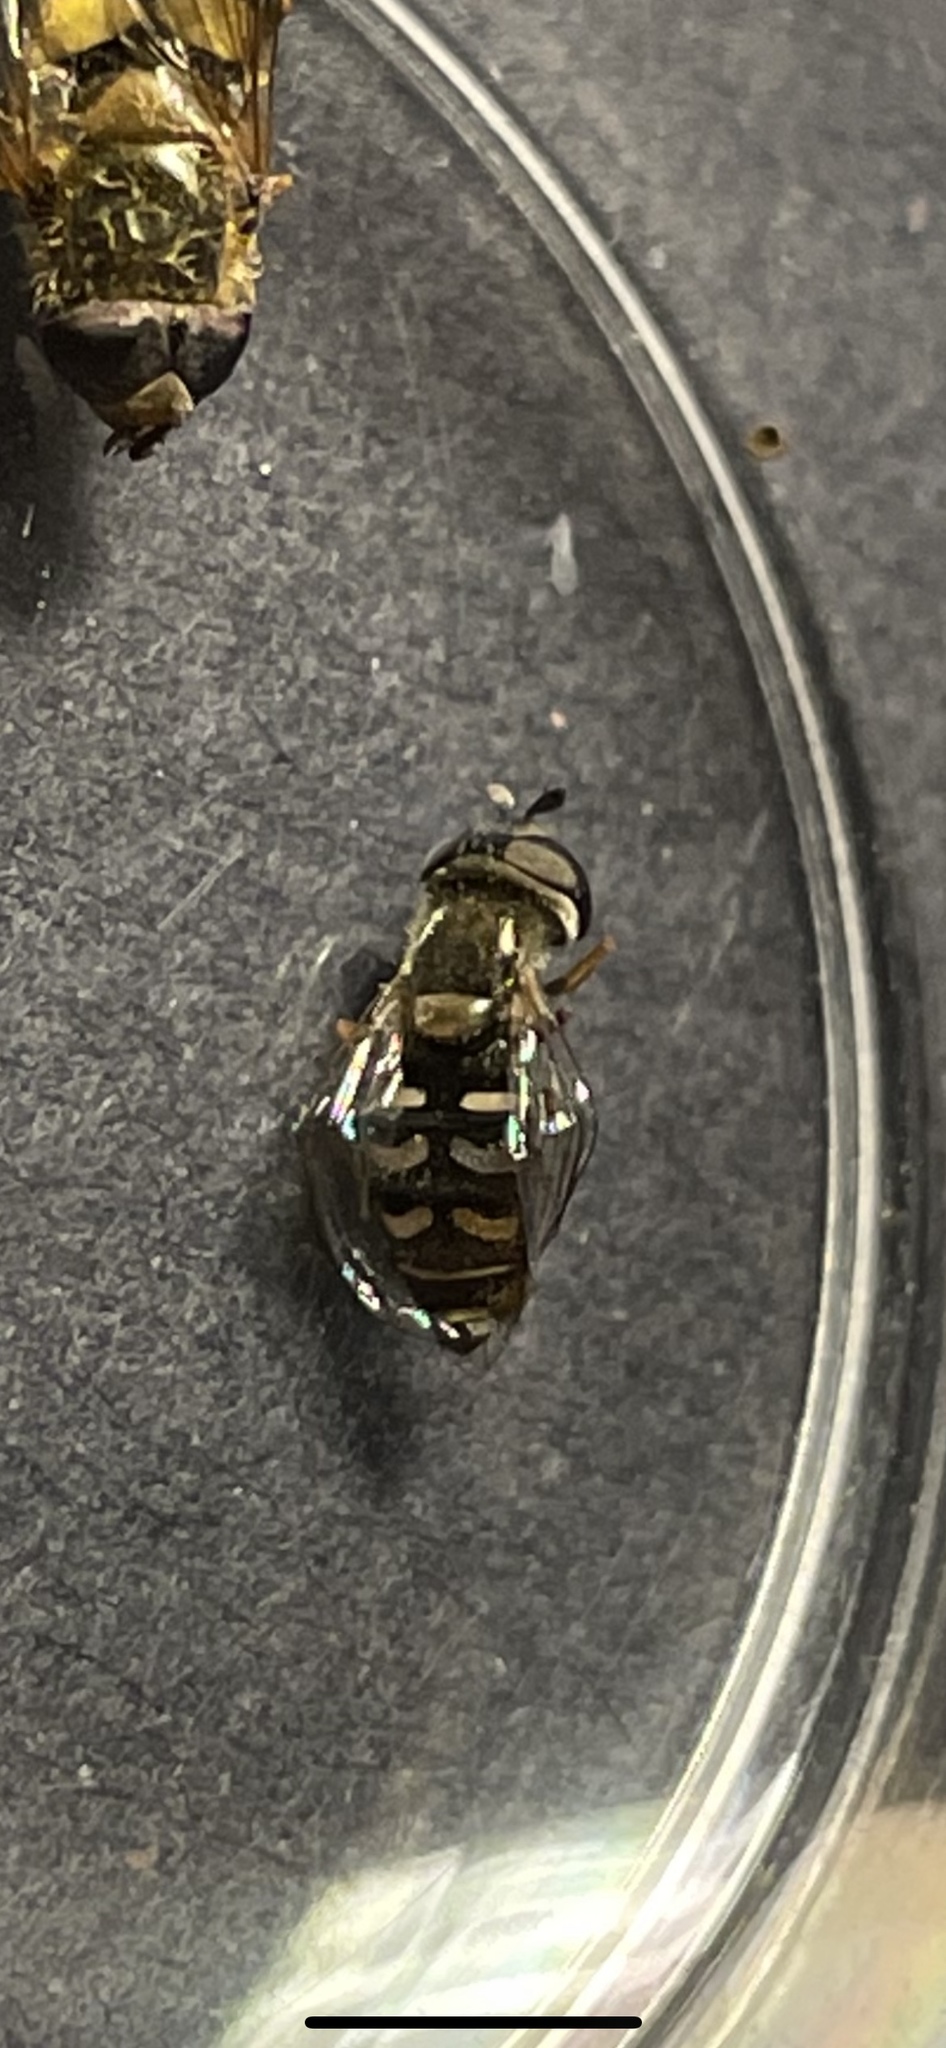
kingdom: Animalia
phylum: Arthropoda
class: Insecta
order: Diptera
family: Syrphidae
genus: Eupeodes
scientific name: Eupeodes volucris
